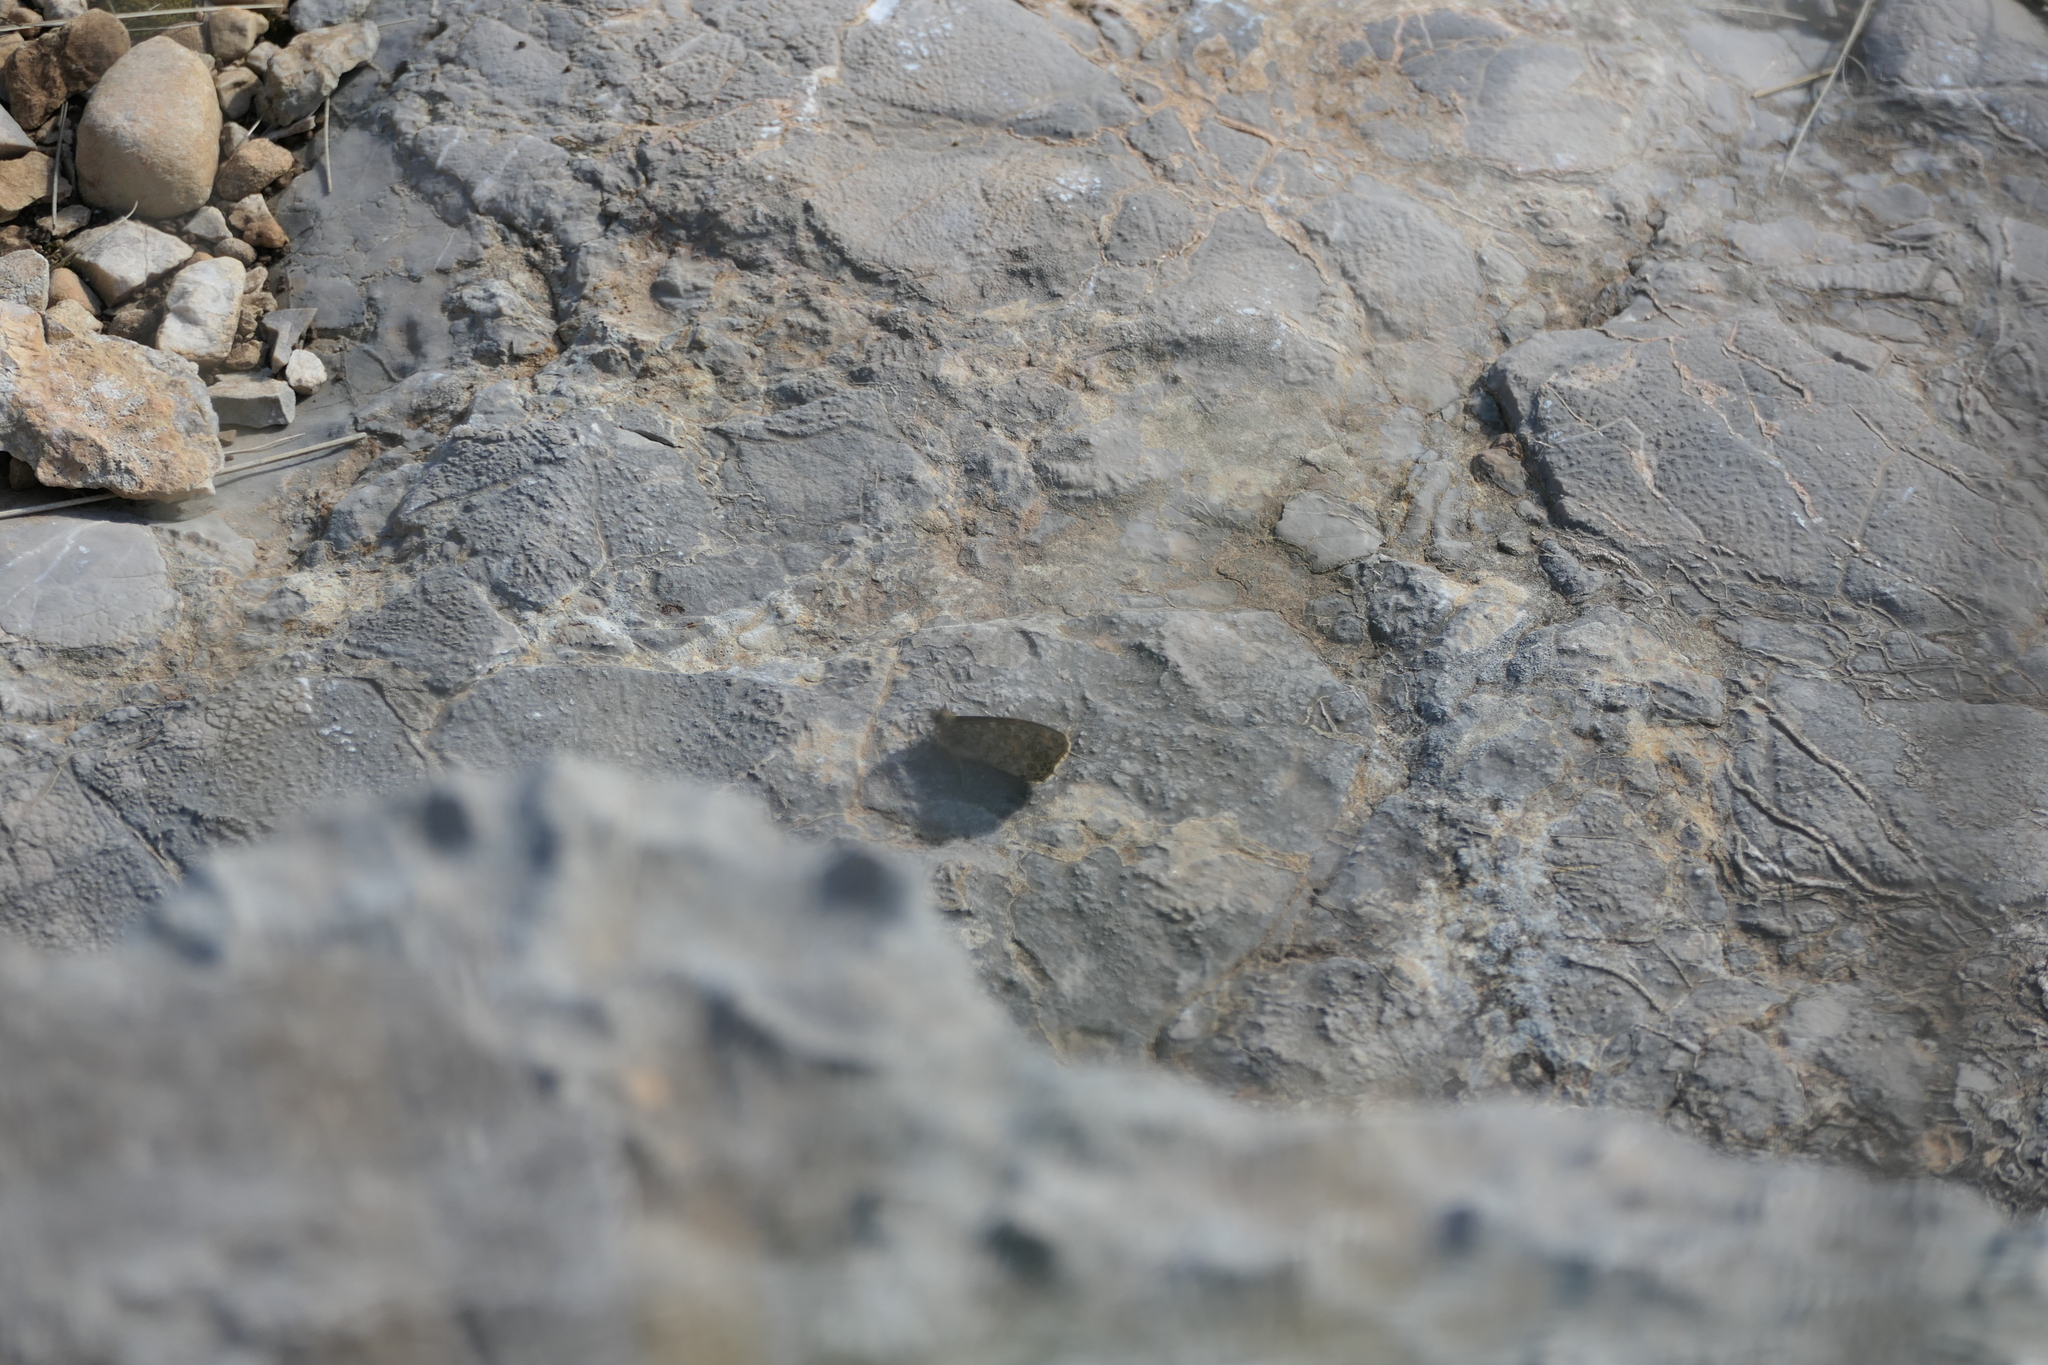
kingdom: Animalia
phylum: Arthropoda
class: Insecta
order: Lepidoptera
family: Nymphalidae
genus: Pararge
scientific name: Pararge Lasiommata megera
